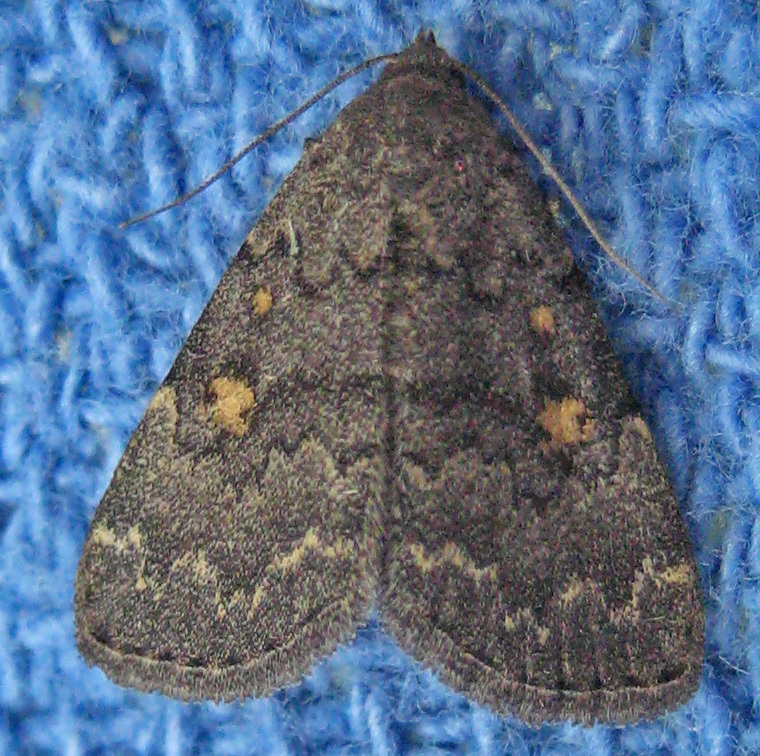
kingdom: Animalia
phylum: Arthropoda
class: Insecta
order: Lepidoptera
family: Erebidae
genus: Idia
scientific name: Idia aemula
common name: Common idia moth
